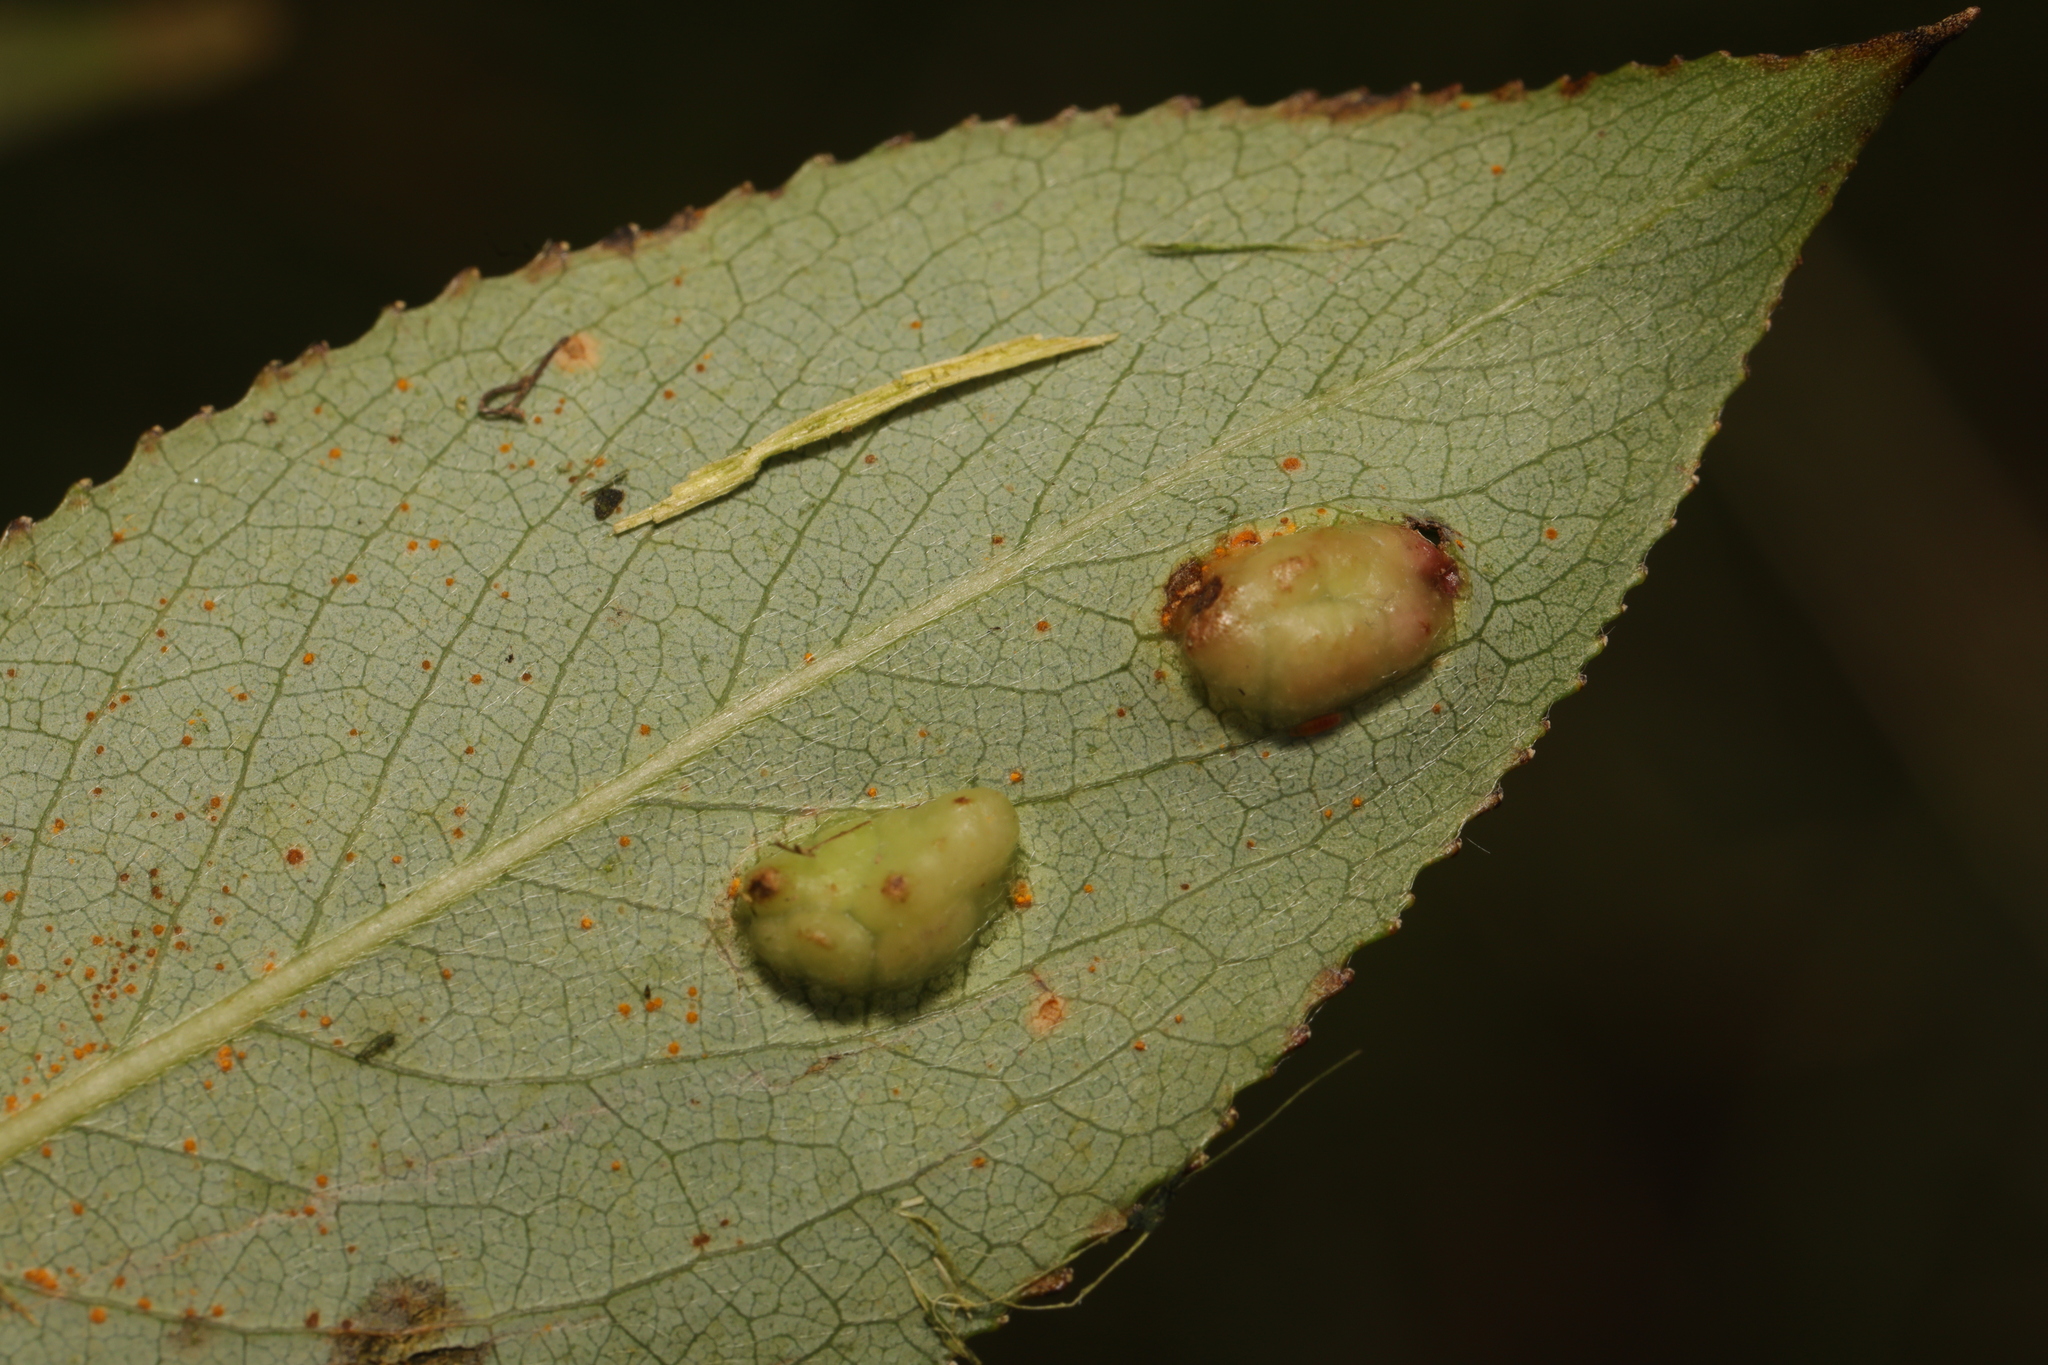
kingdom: Animalia
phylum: Arthropoda
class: Insecta
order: Hymenoptera
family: Tenthredinidae
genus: Pontania
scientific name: Pontania proxima
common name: Common sawfly
